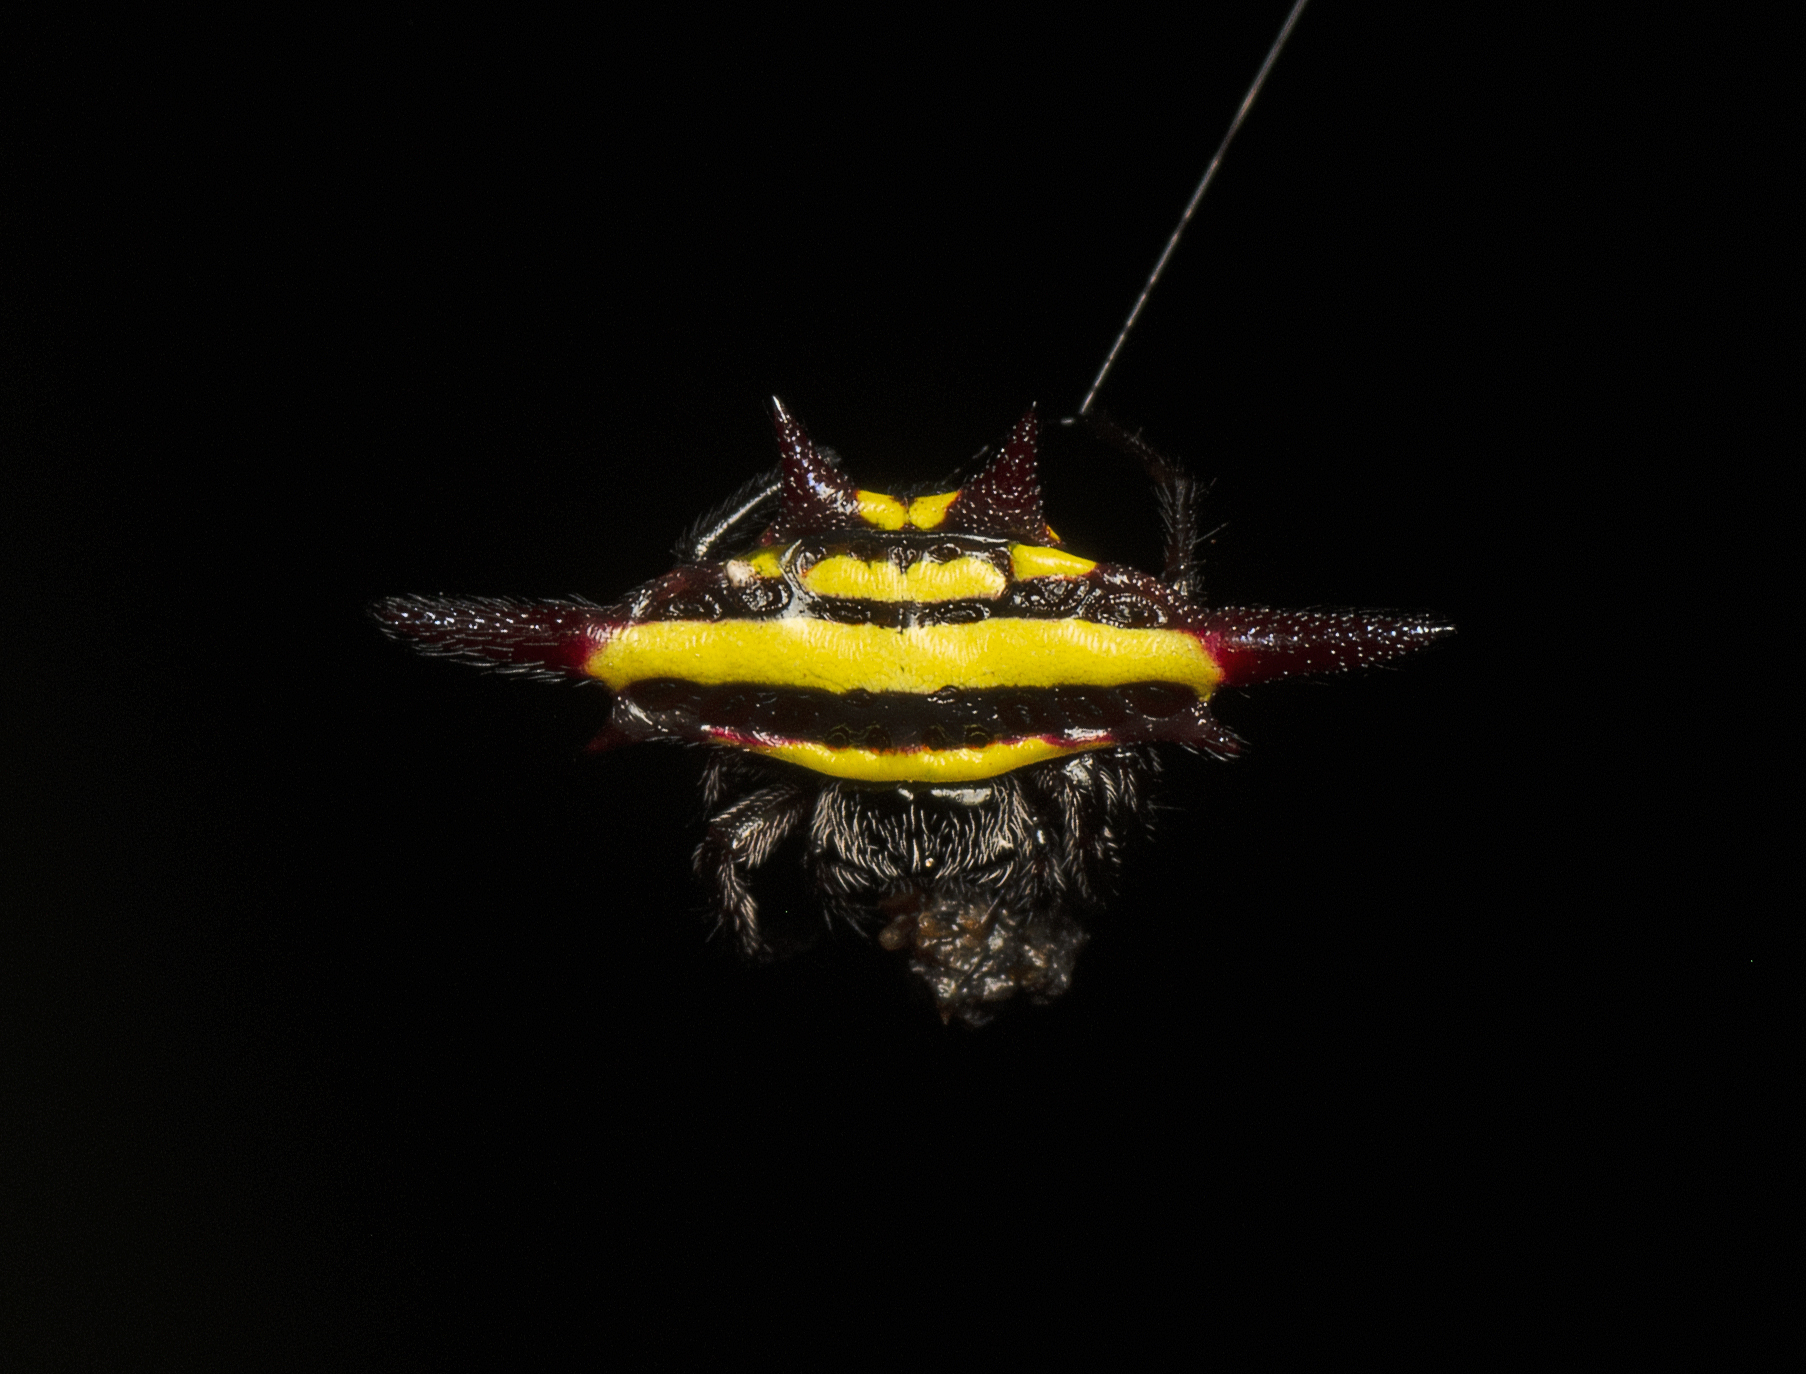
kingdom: Animalia
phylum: Arthropoda
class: Arachnida
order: Araneae
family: Araneidae
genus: Gasteracantha
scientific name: Gasteracantha fornicata
